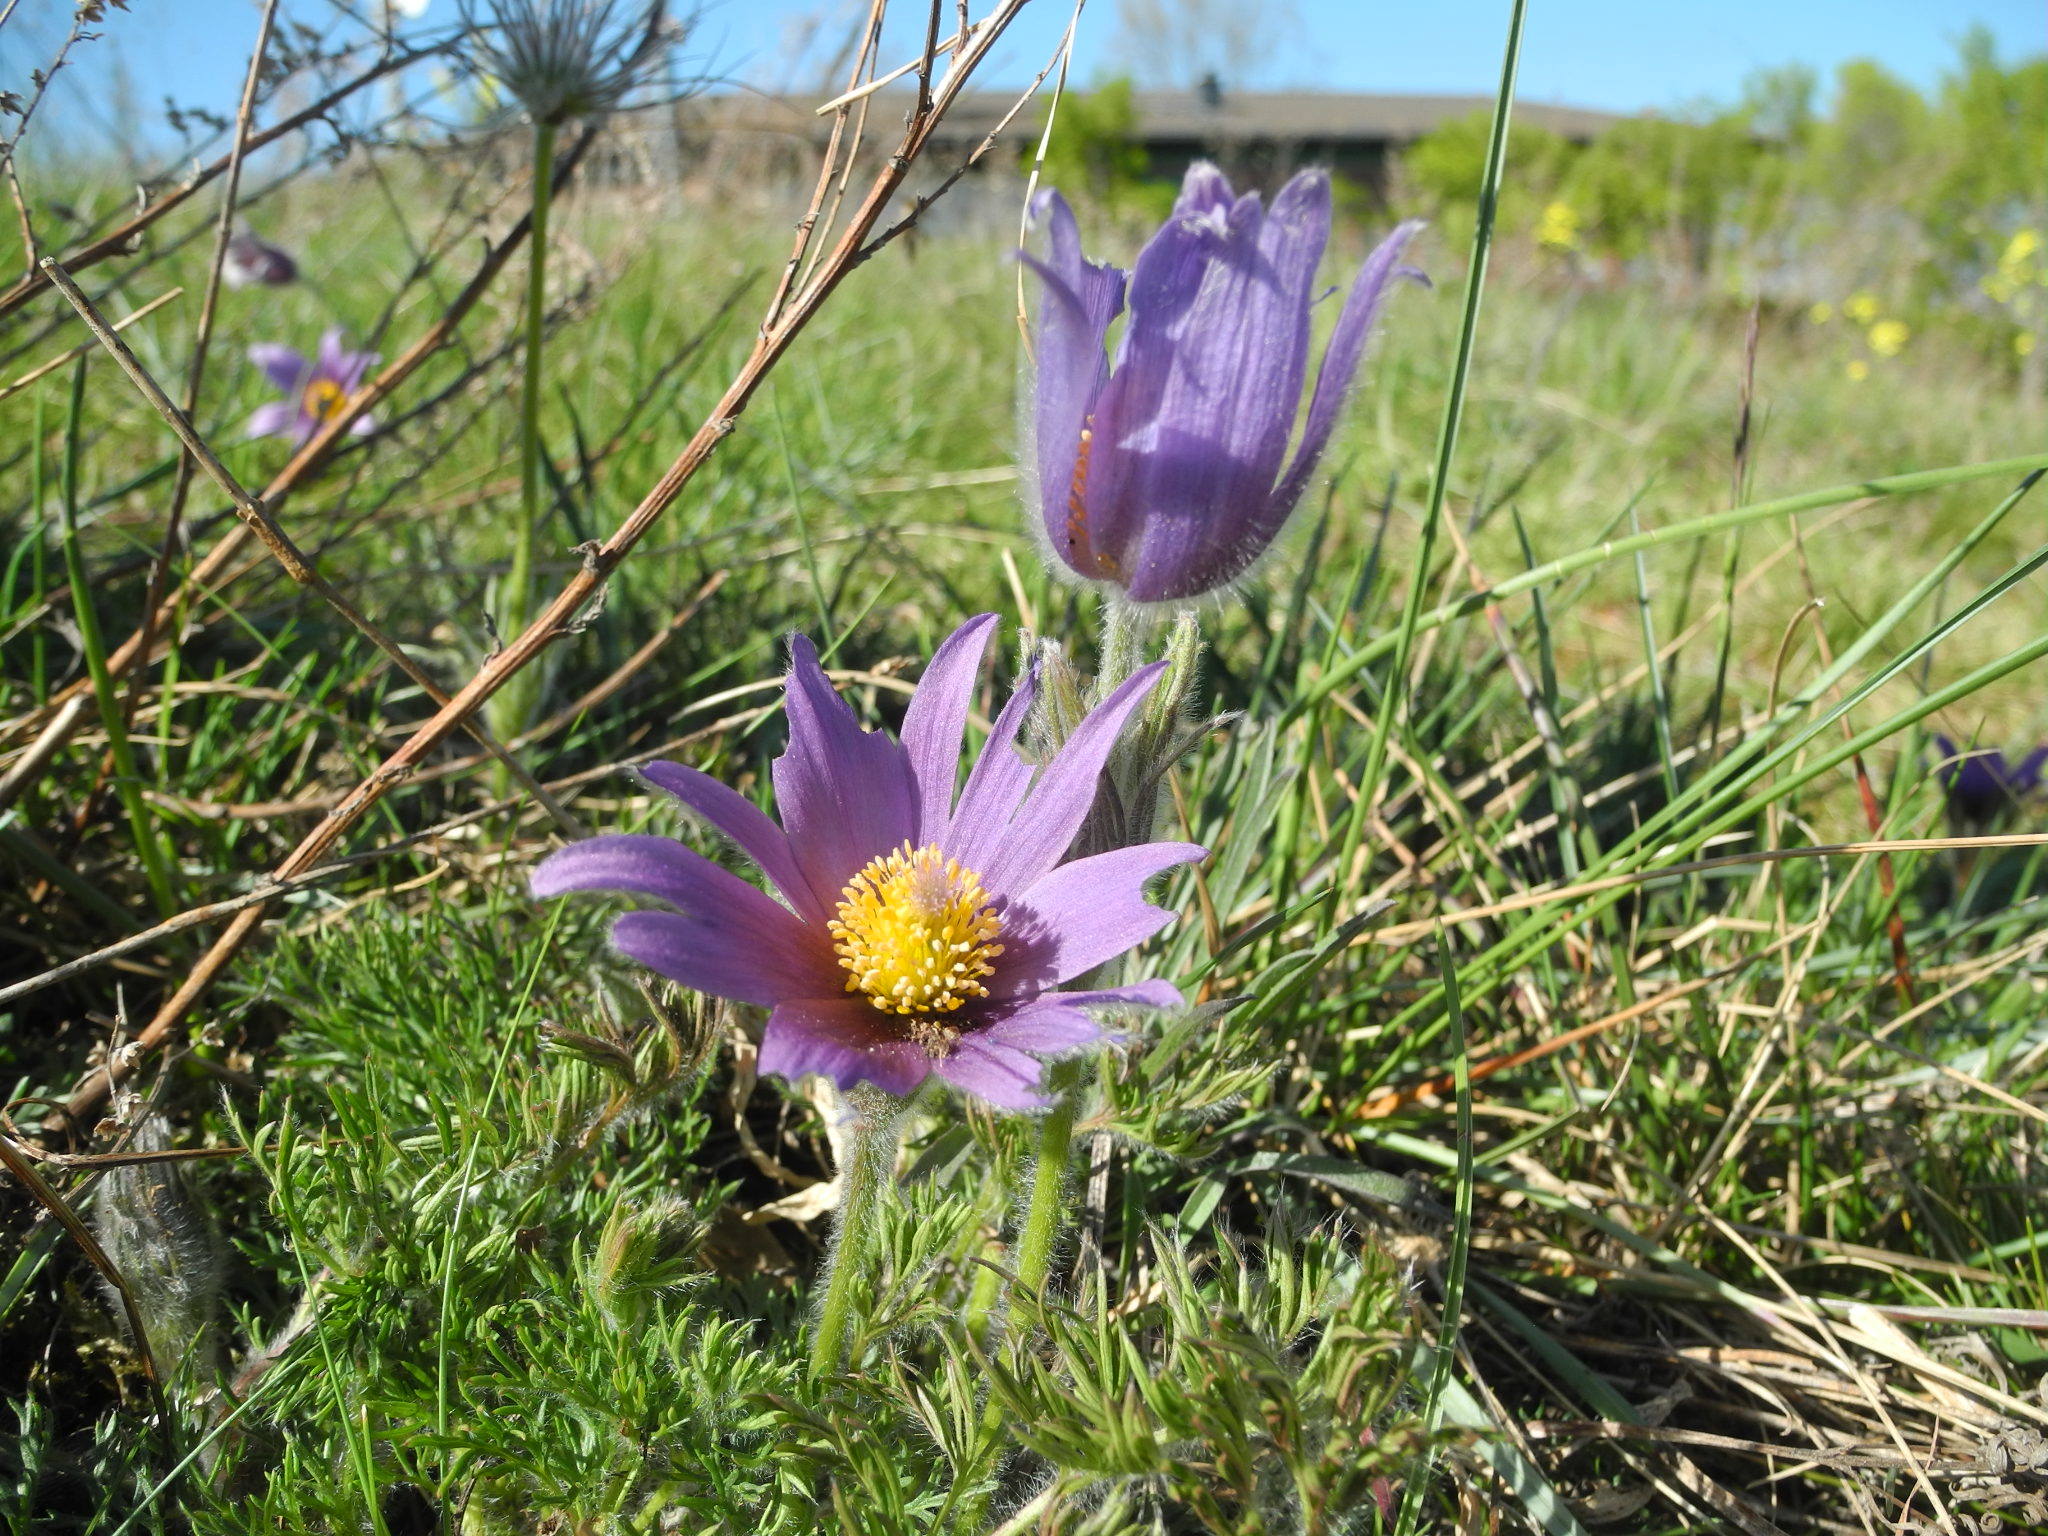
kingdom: Plantae
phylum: Tracheophyta
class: Magnoliopsida
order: Ranunculales
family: Ranunculaceae
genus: Pulsatilla
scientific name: Pulsatilla vulgaris
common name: Pasqueflower
